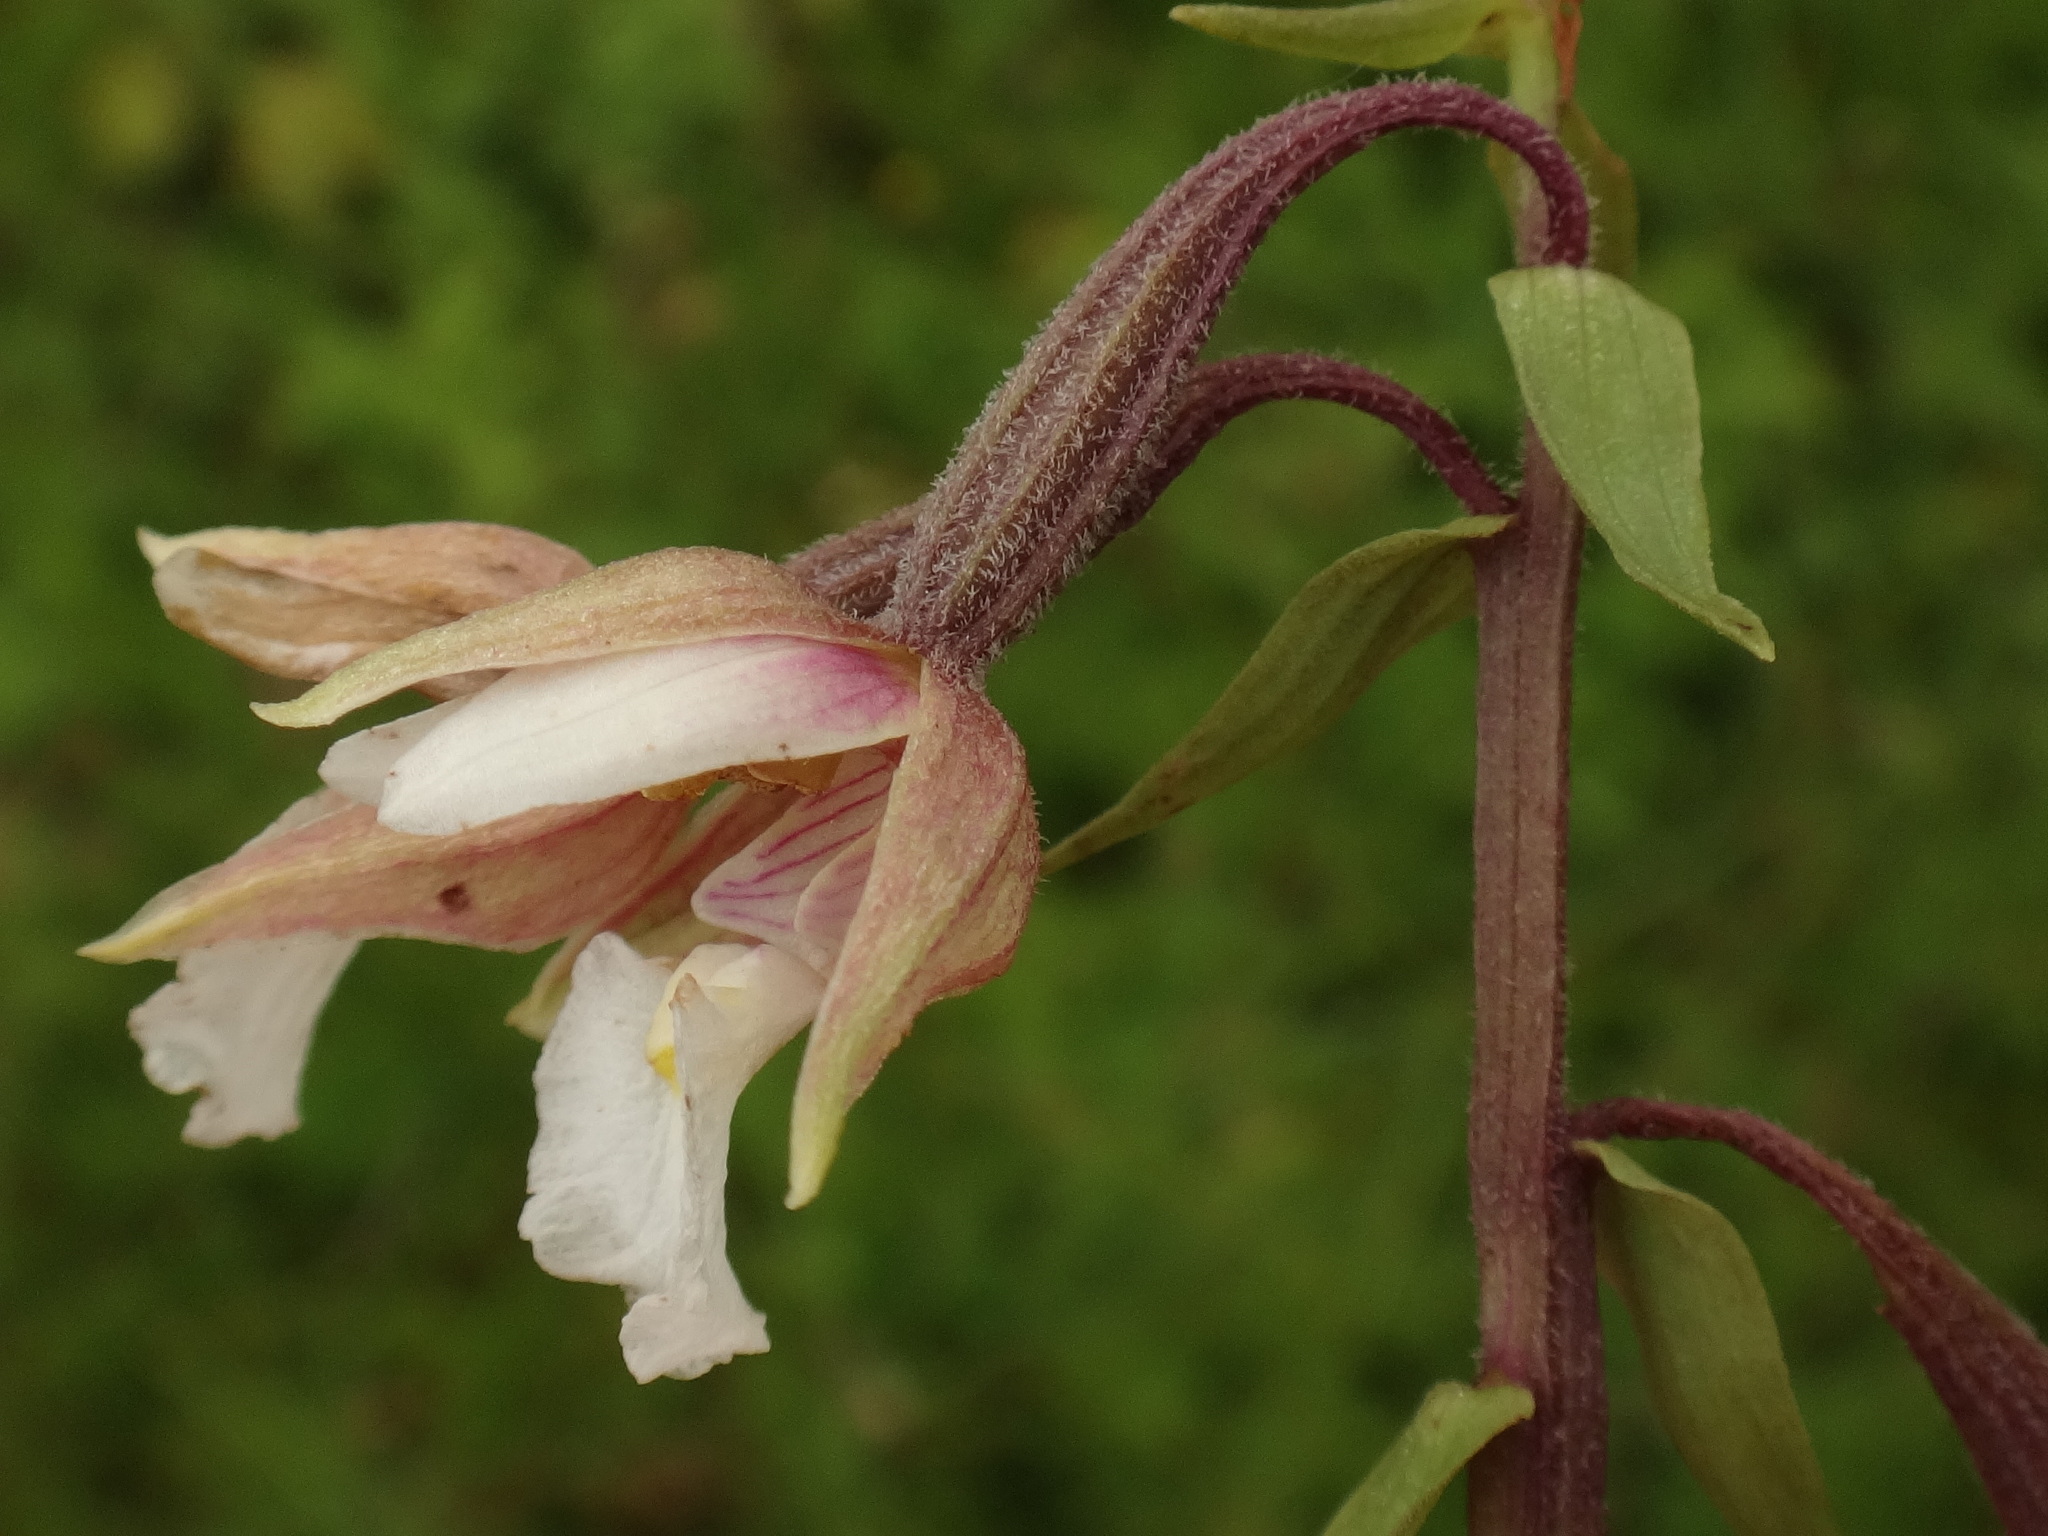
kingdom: Plantae
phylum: Tracheophyta
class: Liliopsida
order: Asparagales
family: Orchidaceae
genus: Epipactis
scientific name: Epipactis palustris
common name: Marsh helleborine
